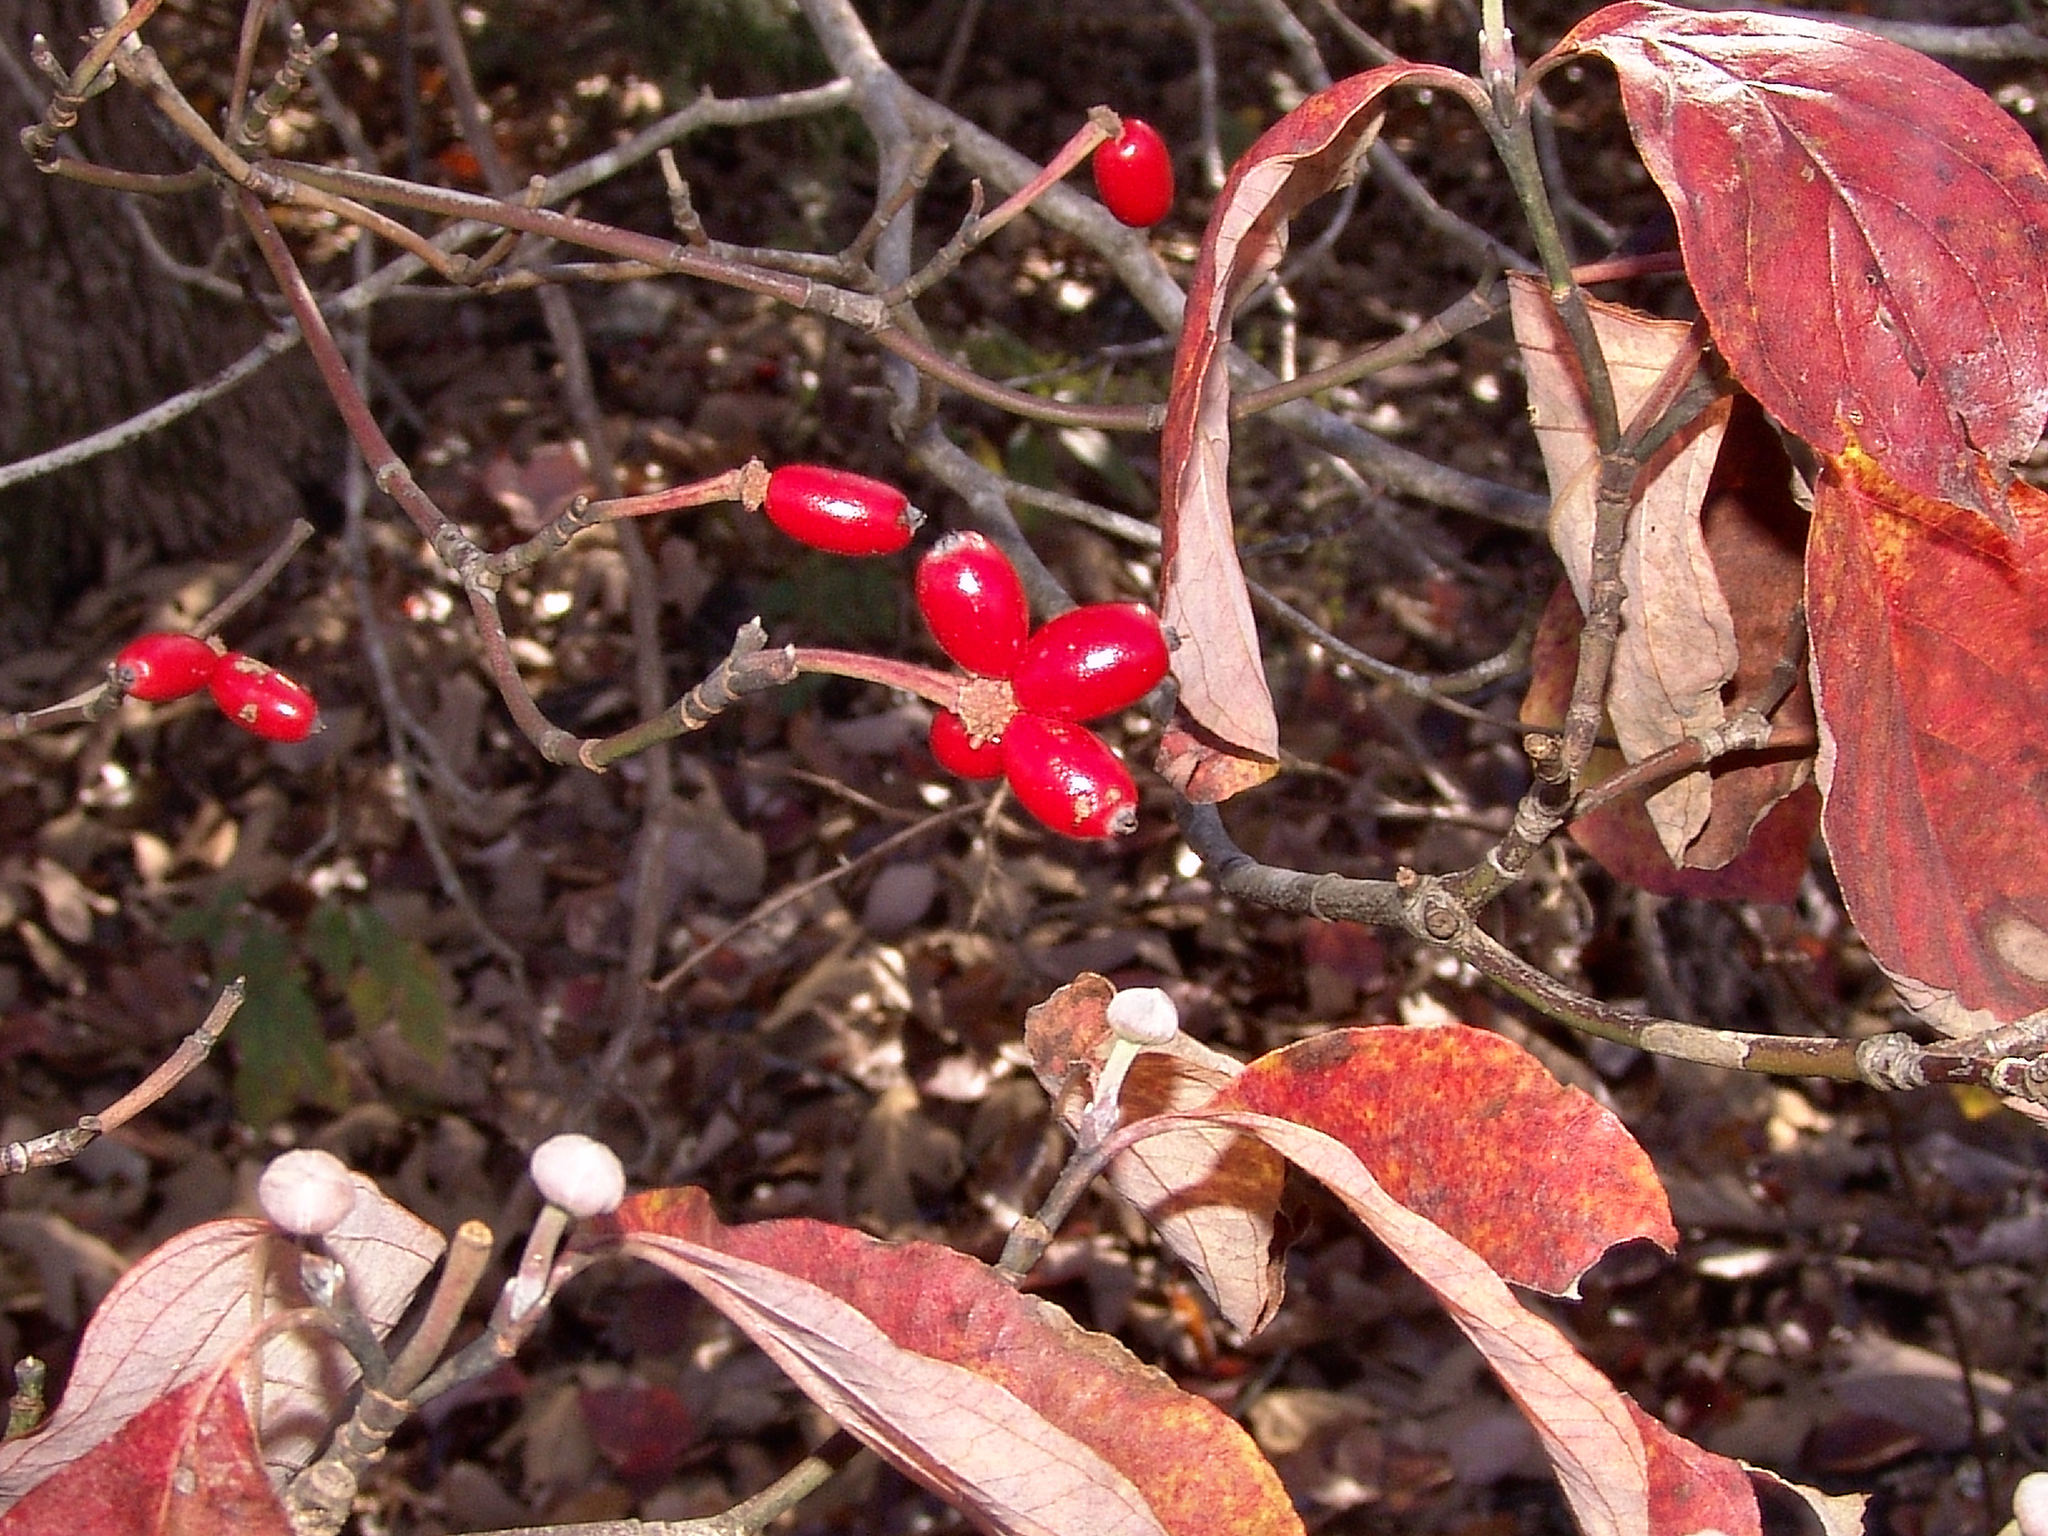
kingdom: Plantae
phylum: Tracheophyta
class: Magnoliopsida
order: Cornales
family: Cornaceae
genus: Cornus
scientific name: Cornus florida
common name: Flowering dogwood
